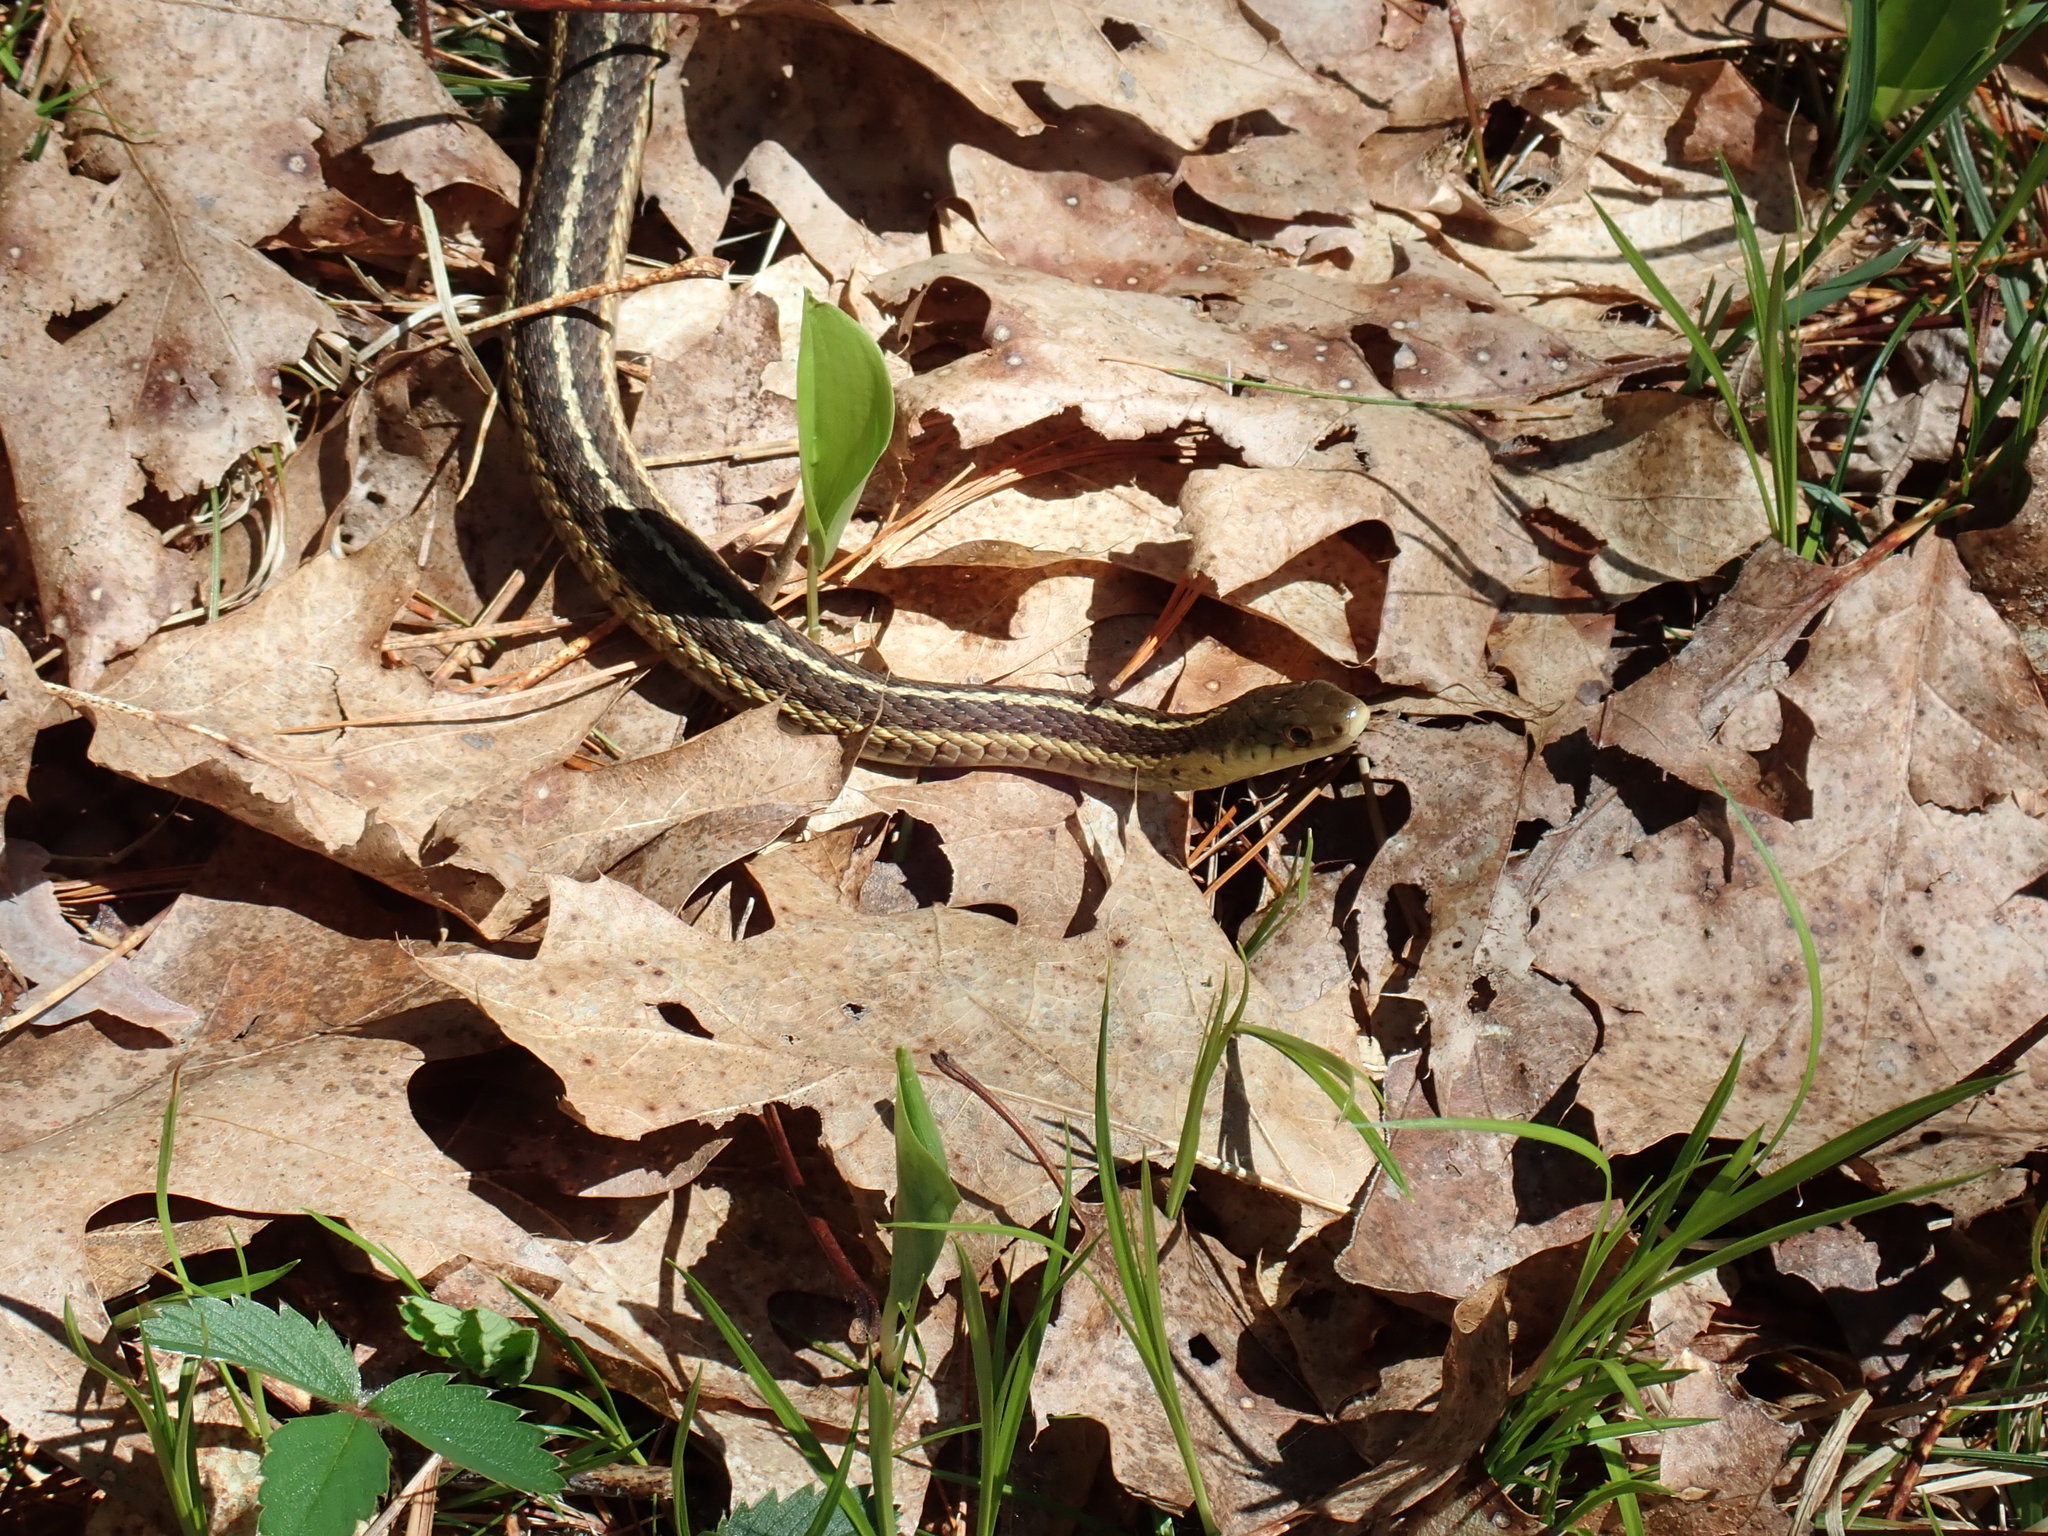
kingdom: Animalia
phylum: Chordata
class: Squamata
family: Colubridae
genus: Thamnophis
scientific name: Thamnophis sirtalis
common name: Common garter snake
